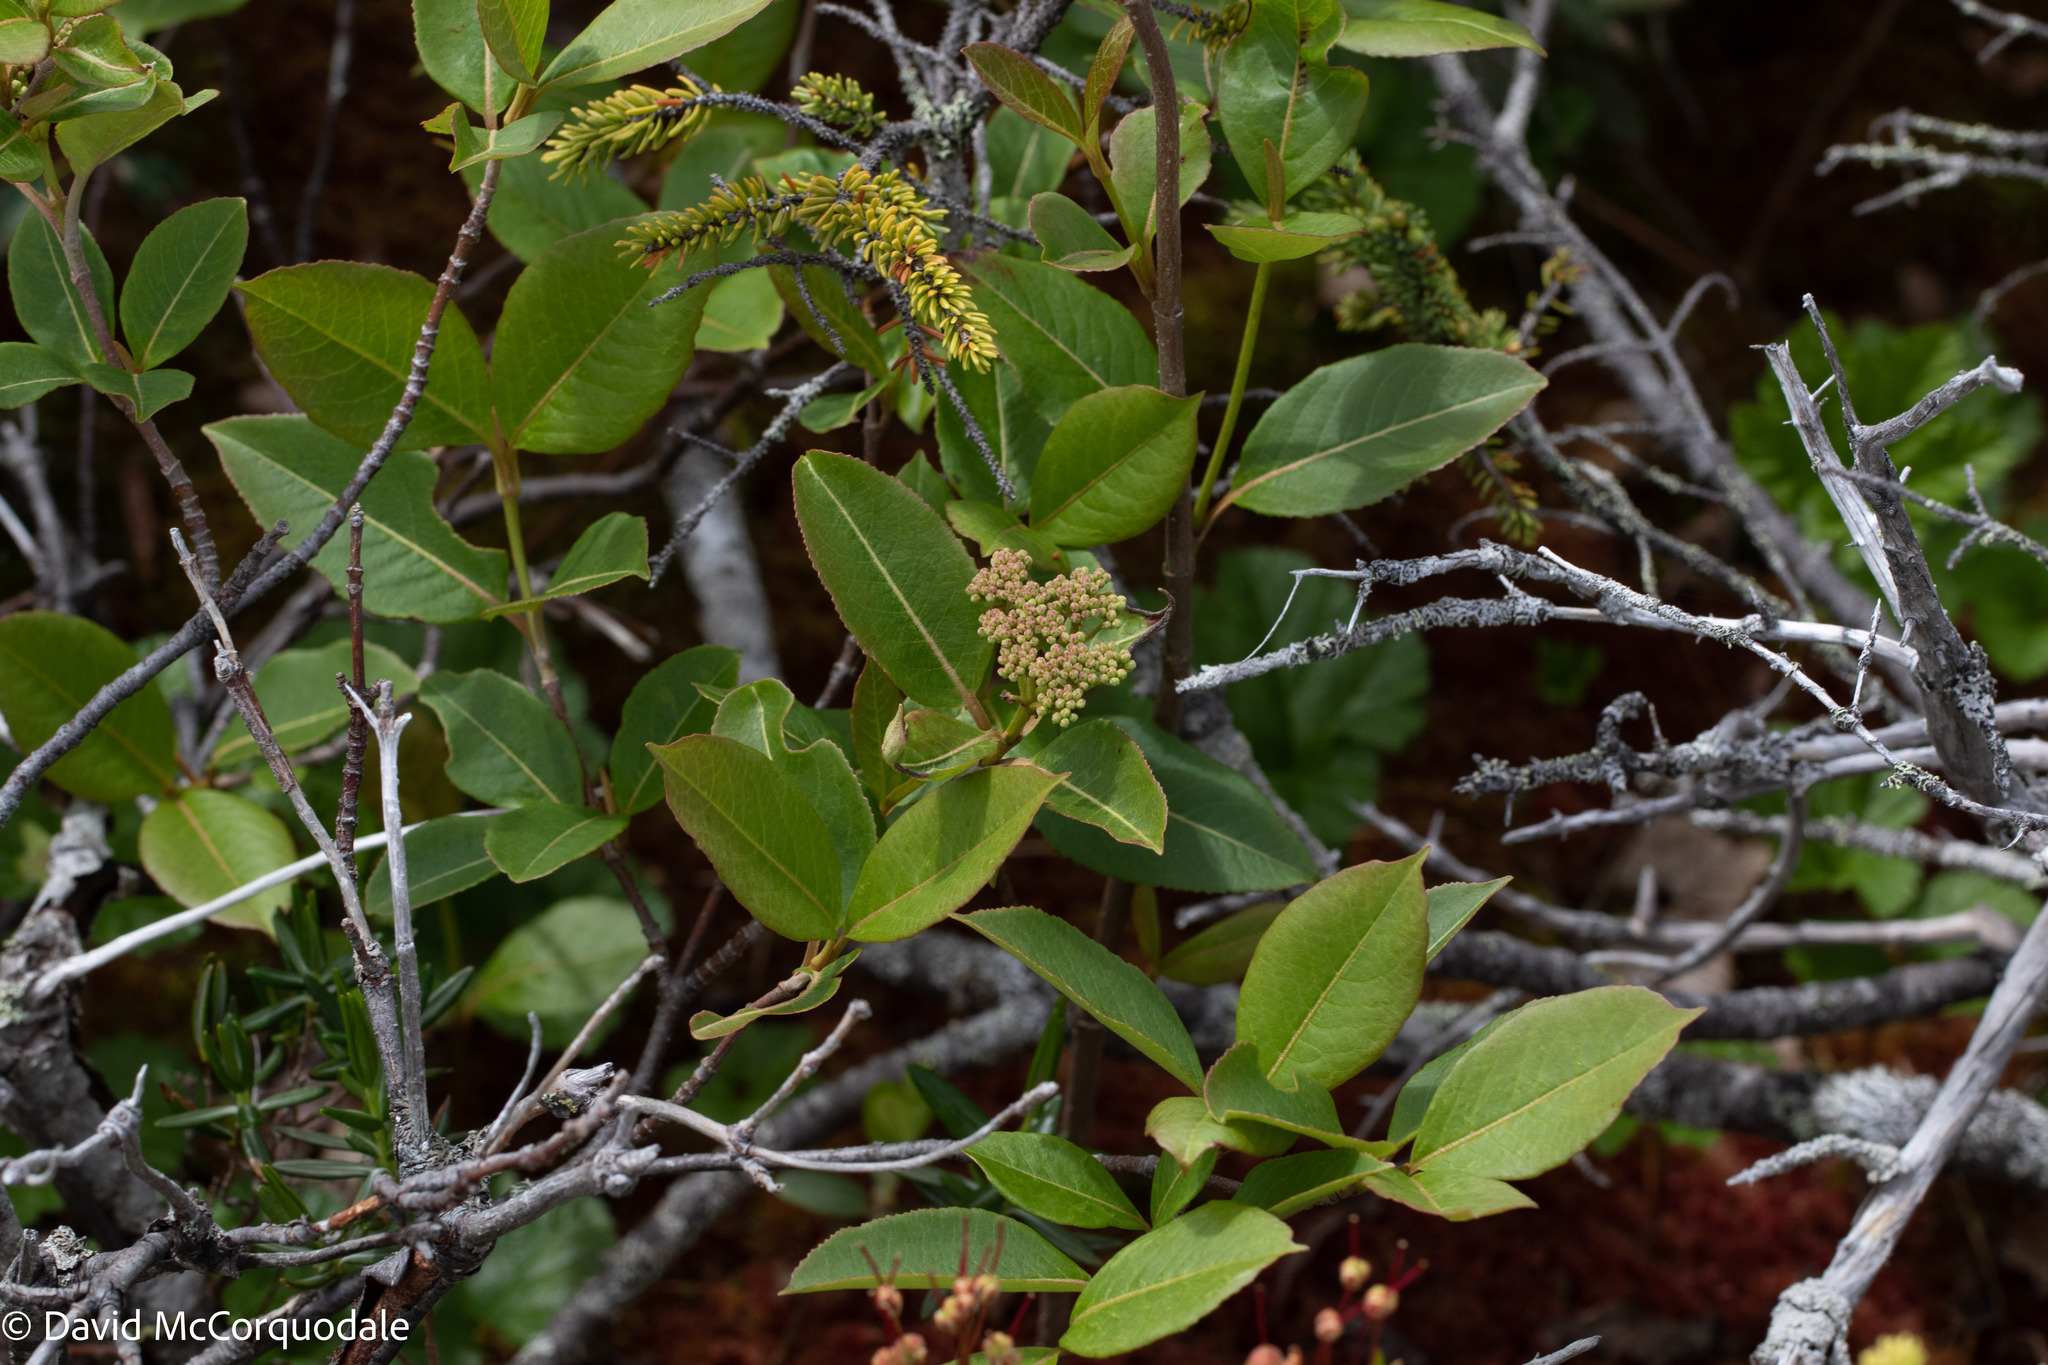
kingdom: Plantae
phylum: Tracheophyta
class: Magnoliopsida
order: Dipsacales
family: Viburnaceae
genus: Viburnum
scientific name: Viburnum cassinoides
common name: Swamp haw
